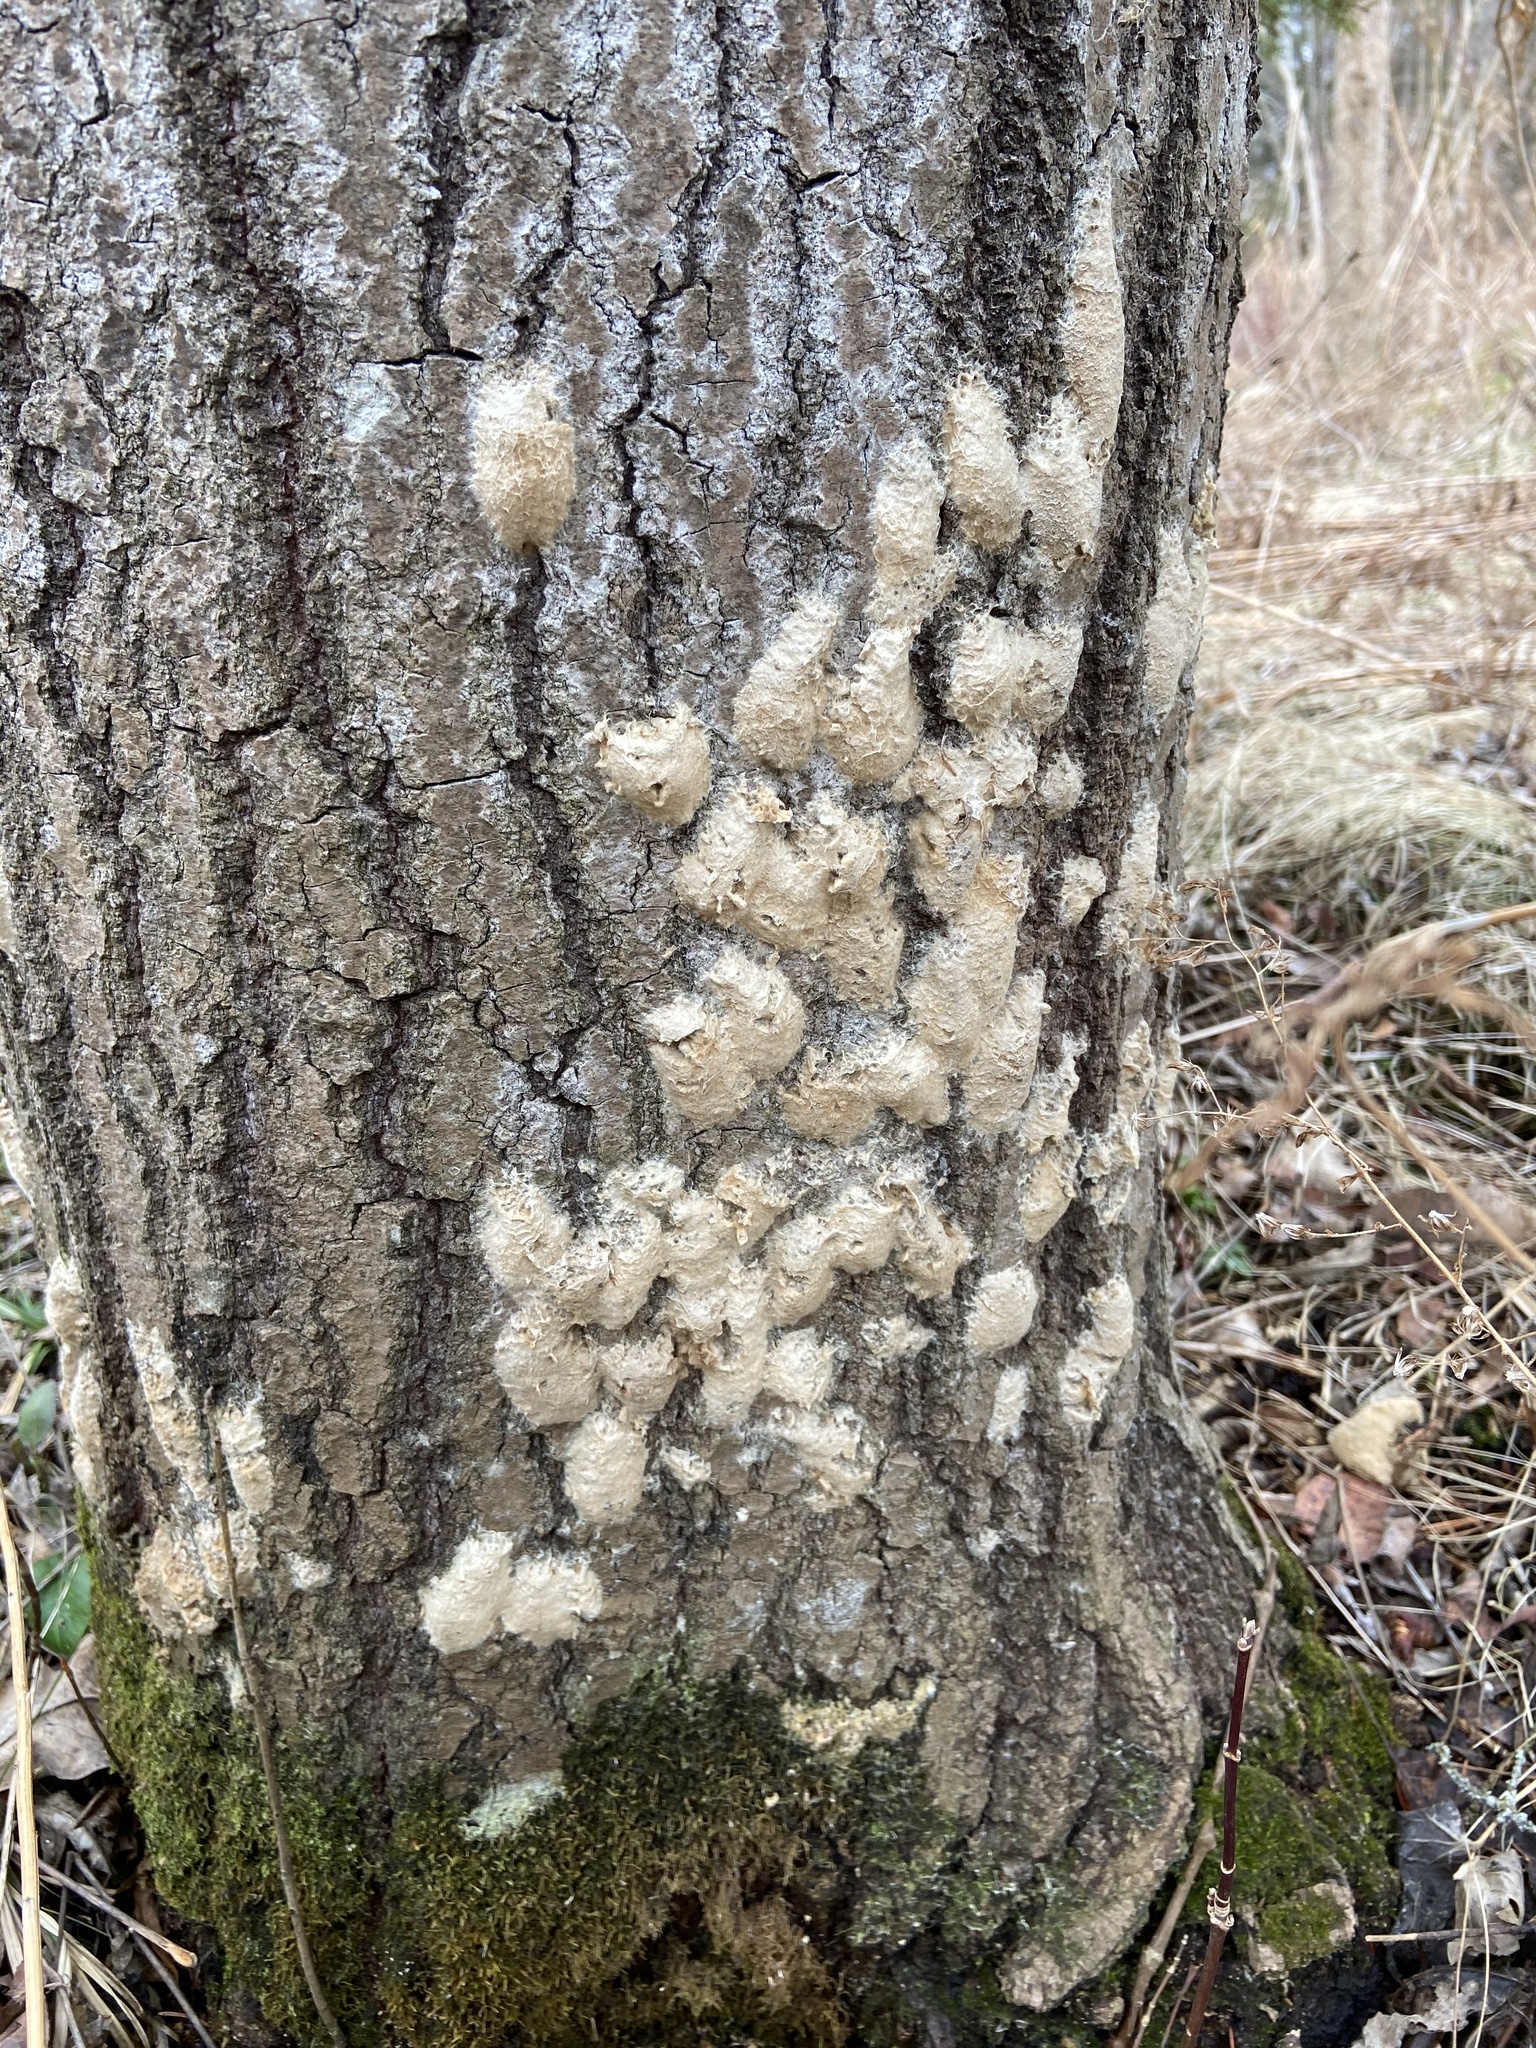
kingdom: Animalia
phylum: Arthropoda
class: Insecta
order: Lepidoptera
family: Erebidae
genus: Lymantria
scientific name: Lymantria dispar
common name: Gypsy moth
